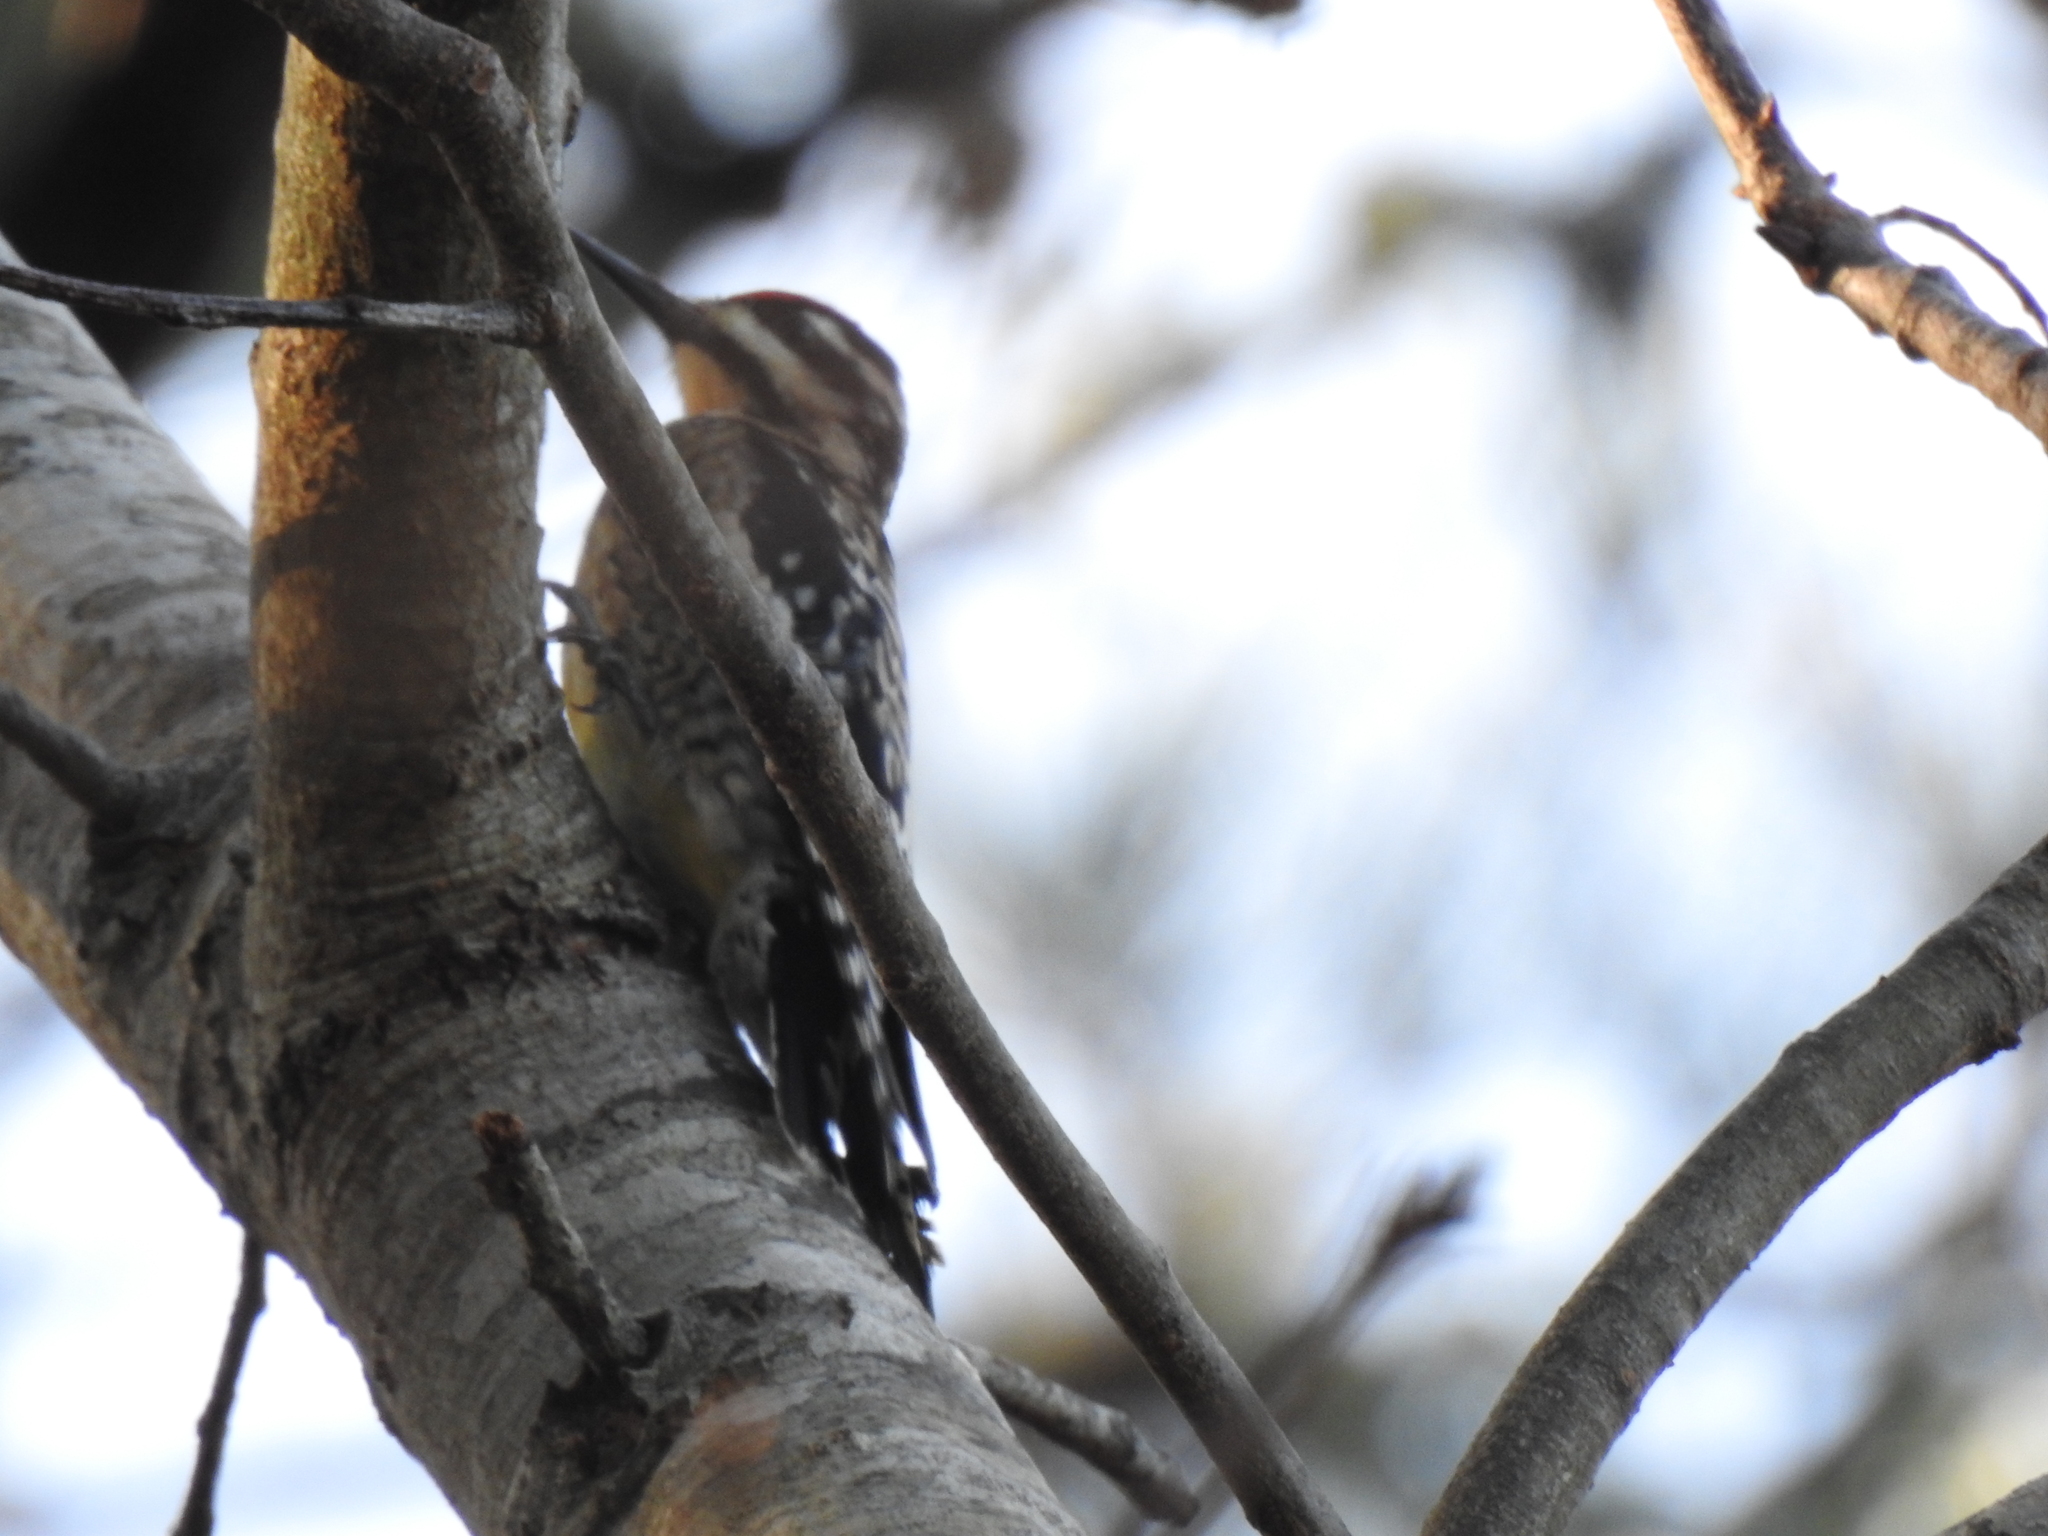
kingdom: Animalia
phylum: Chordata
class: Aves
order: Piciformes
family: Picidae
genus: Sphyrapicus
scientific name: Sphyrapicus varius
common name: Yellow-bellied sapsucker
